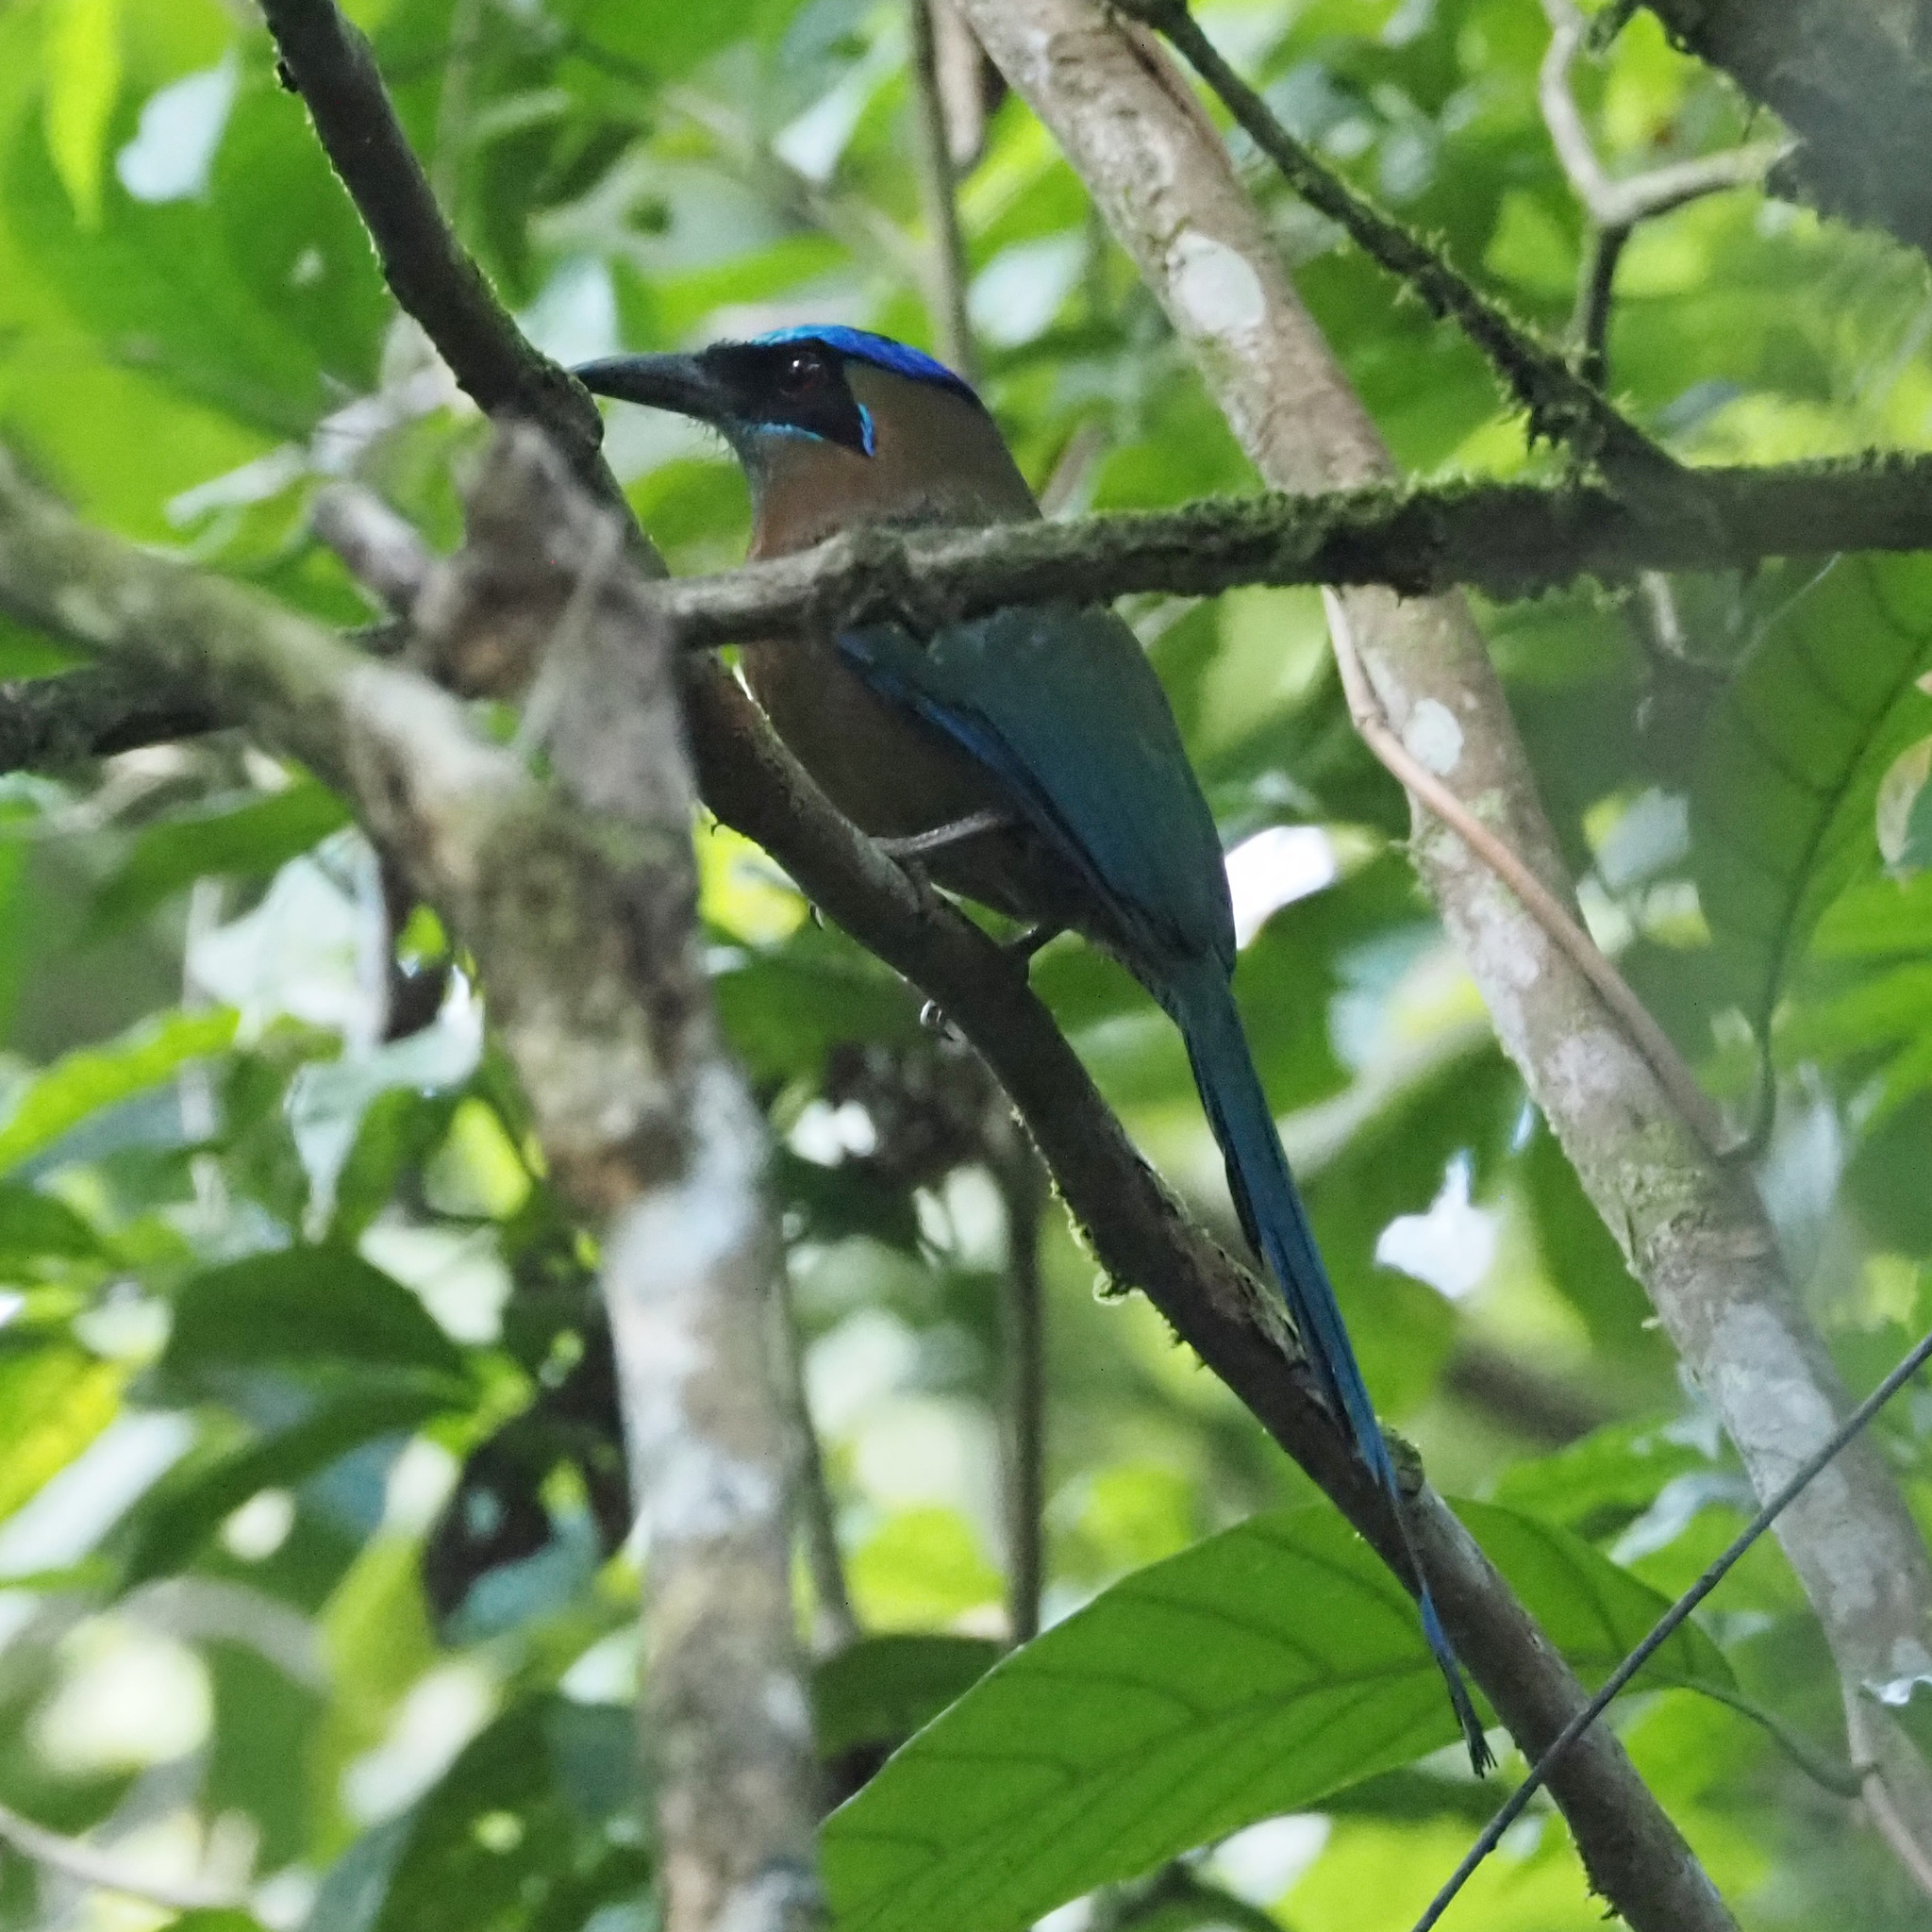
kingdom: Animalia
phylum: Chordata
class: Aves
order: Coraciiformes
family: Momotidae
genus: Momotus
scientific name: Momotus lessonii
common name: Lesson's motmot
